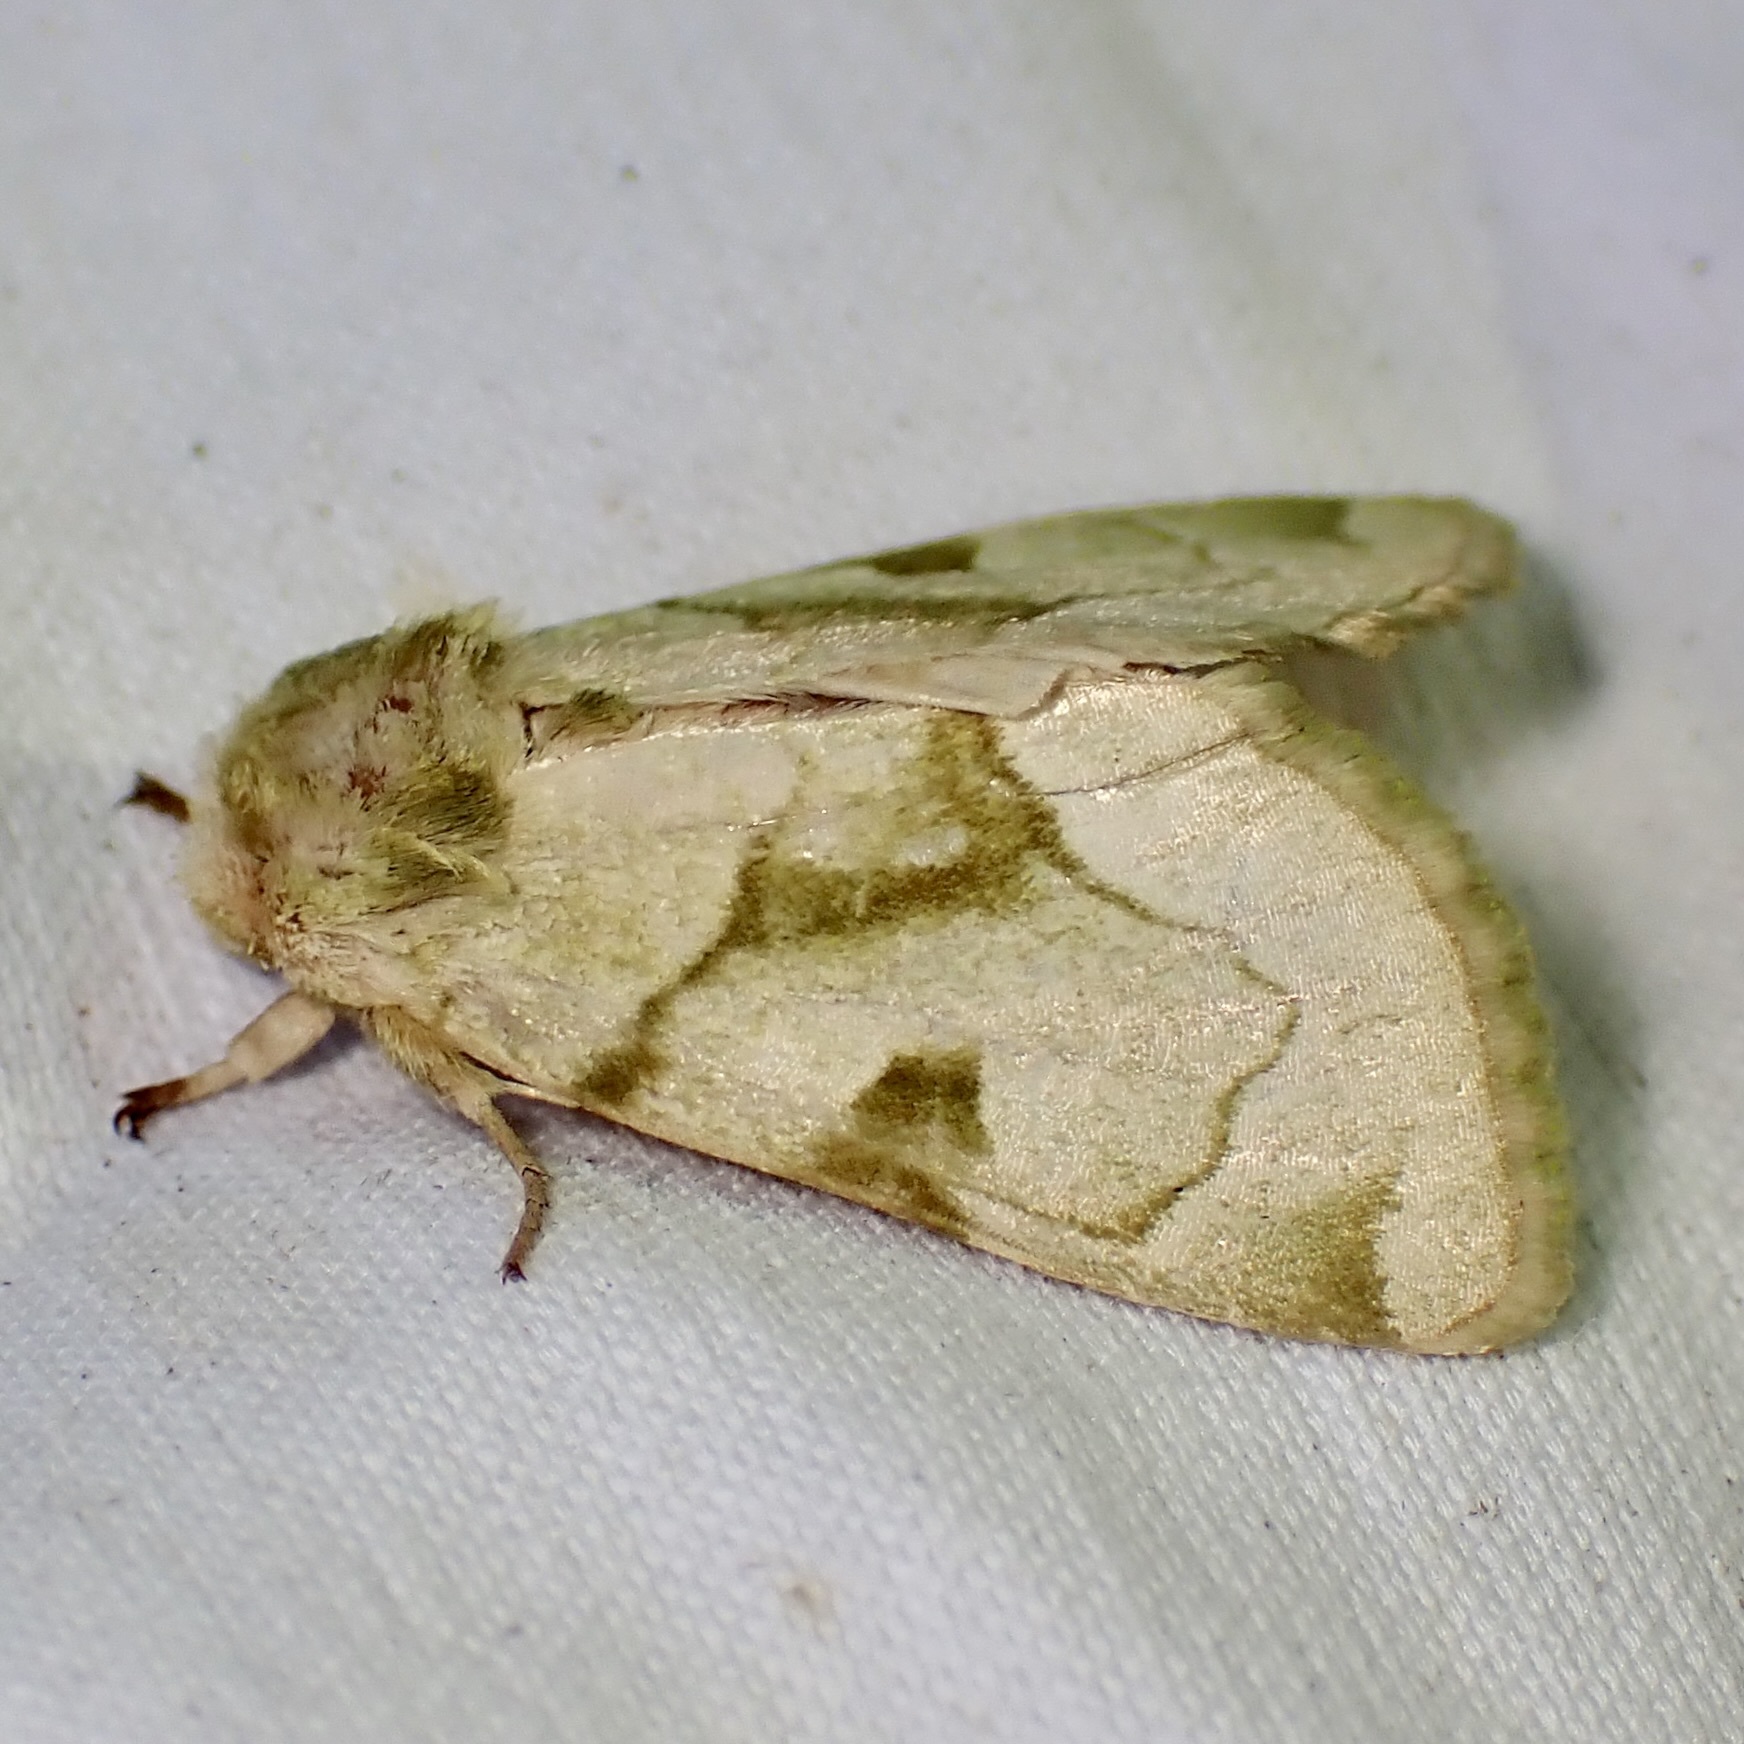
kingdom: Animalia
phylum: Arthropoda
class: Insecta
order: Lepidoptera
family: Noctuidae
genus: Oslaria
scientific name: Oslaria viridifera
